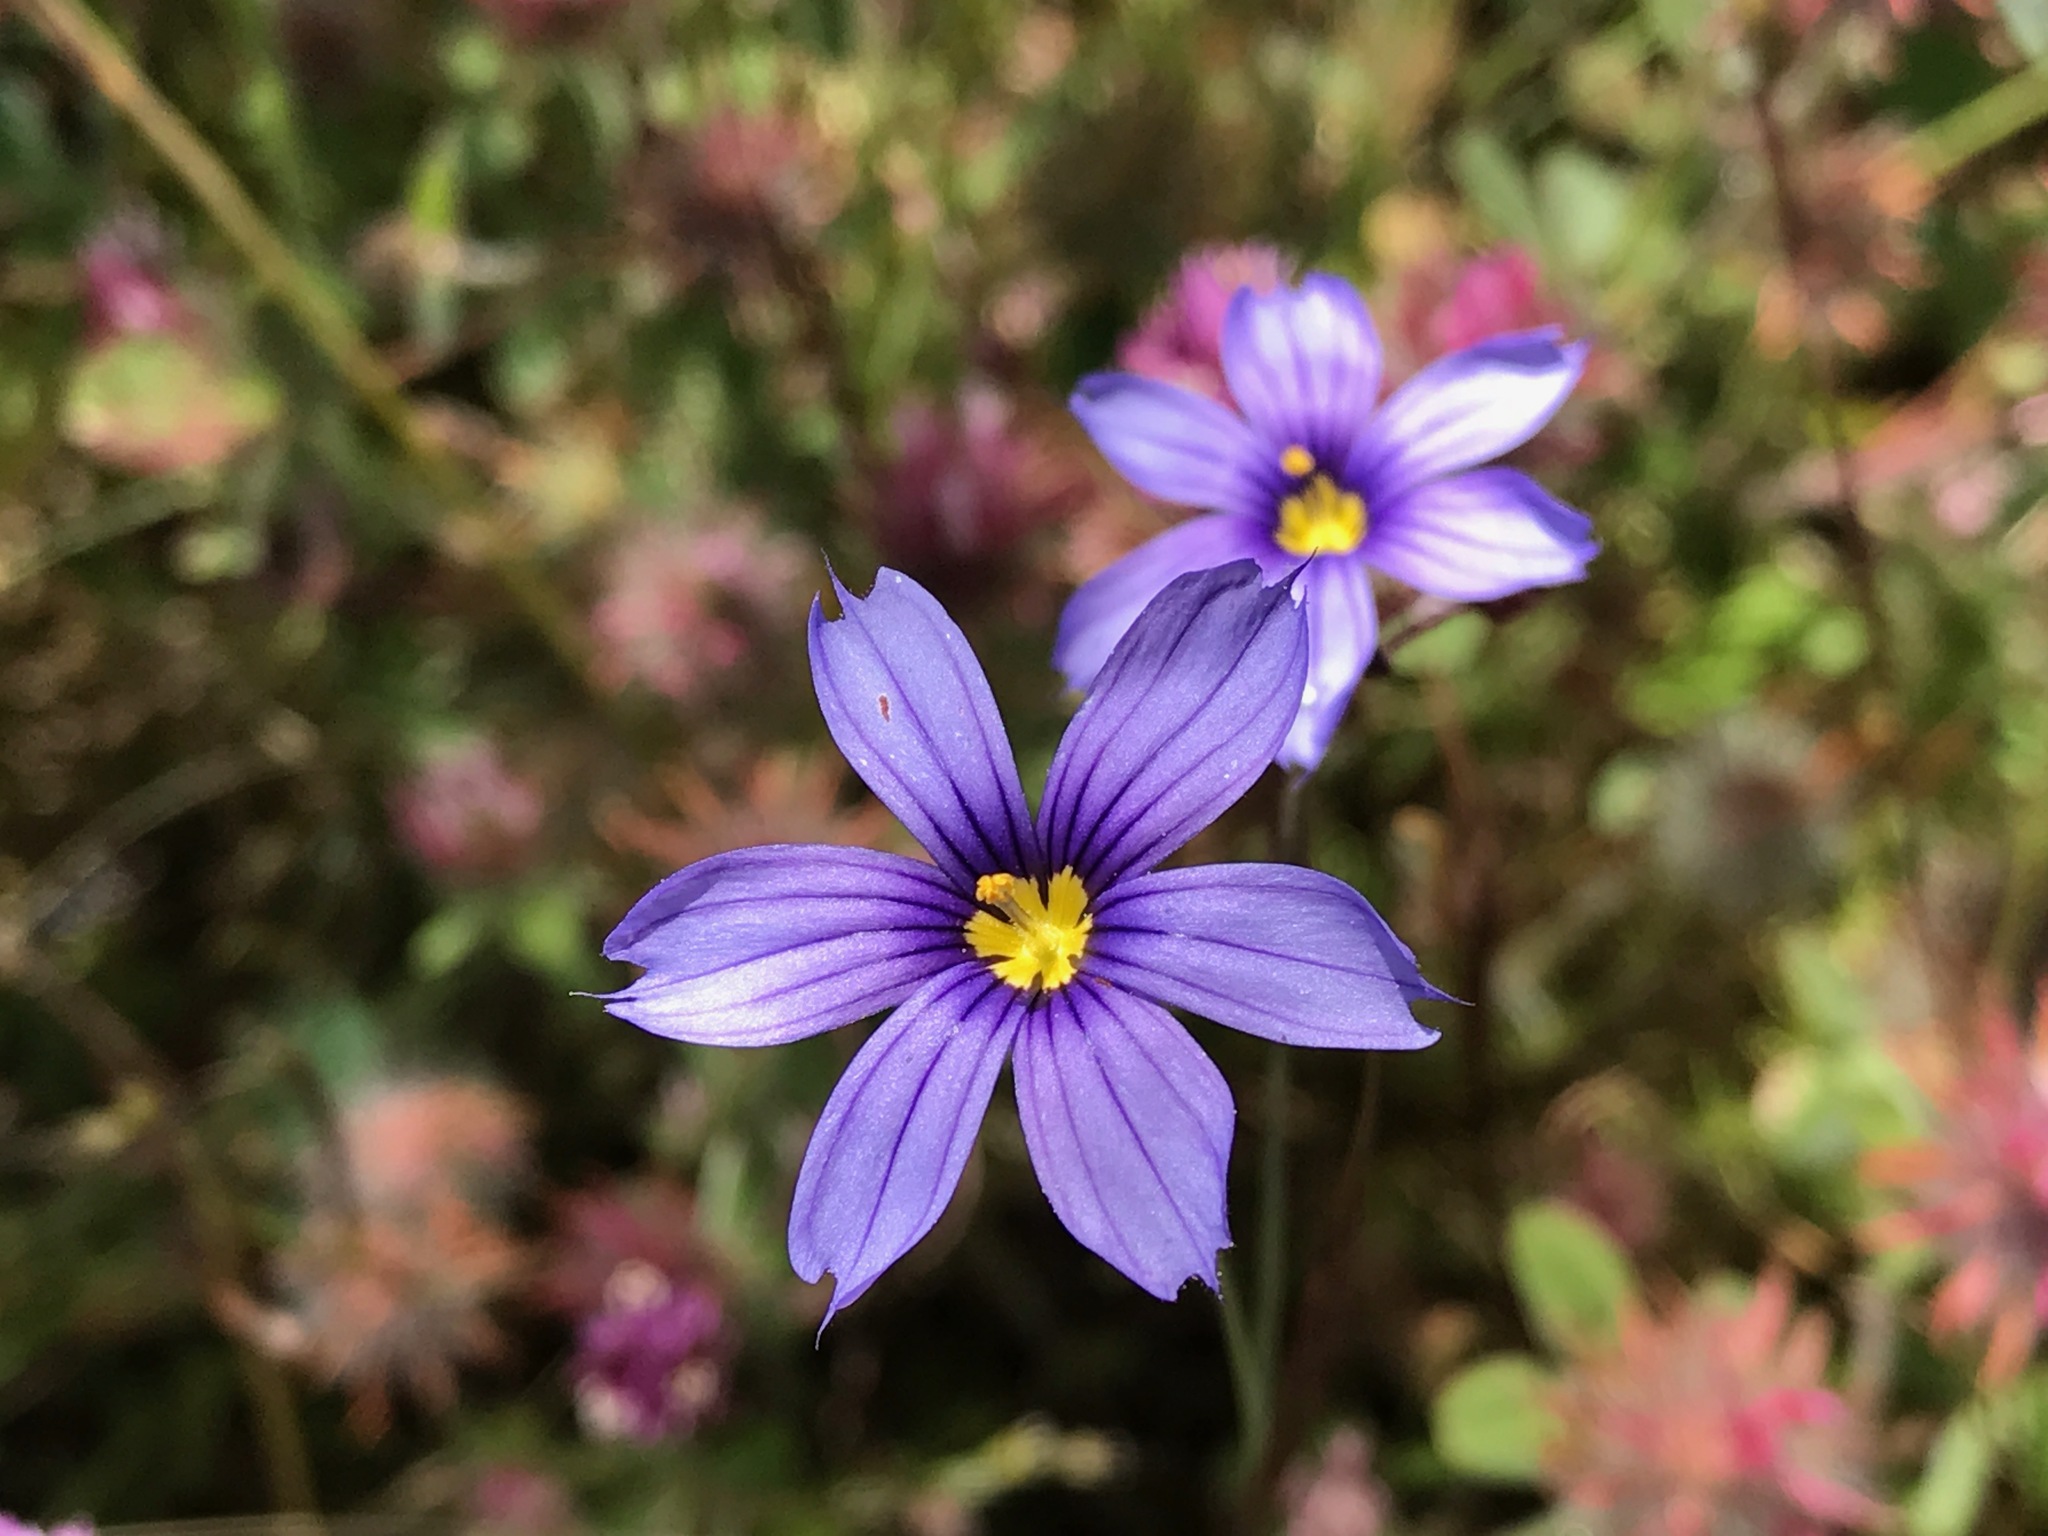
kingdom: Plantae
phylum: Tracheophyta
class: Liliopsida
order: Asparagales
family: Iridaceae
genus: Sisyrinchium
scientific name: Sisyrinchium bellum
